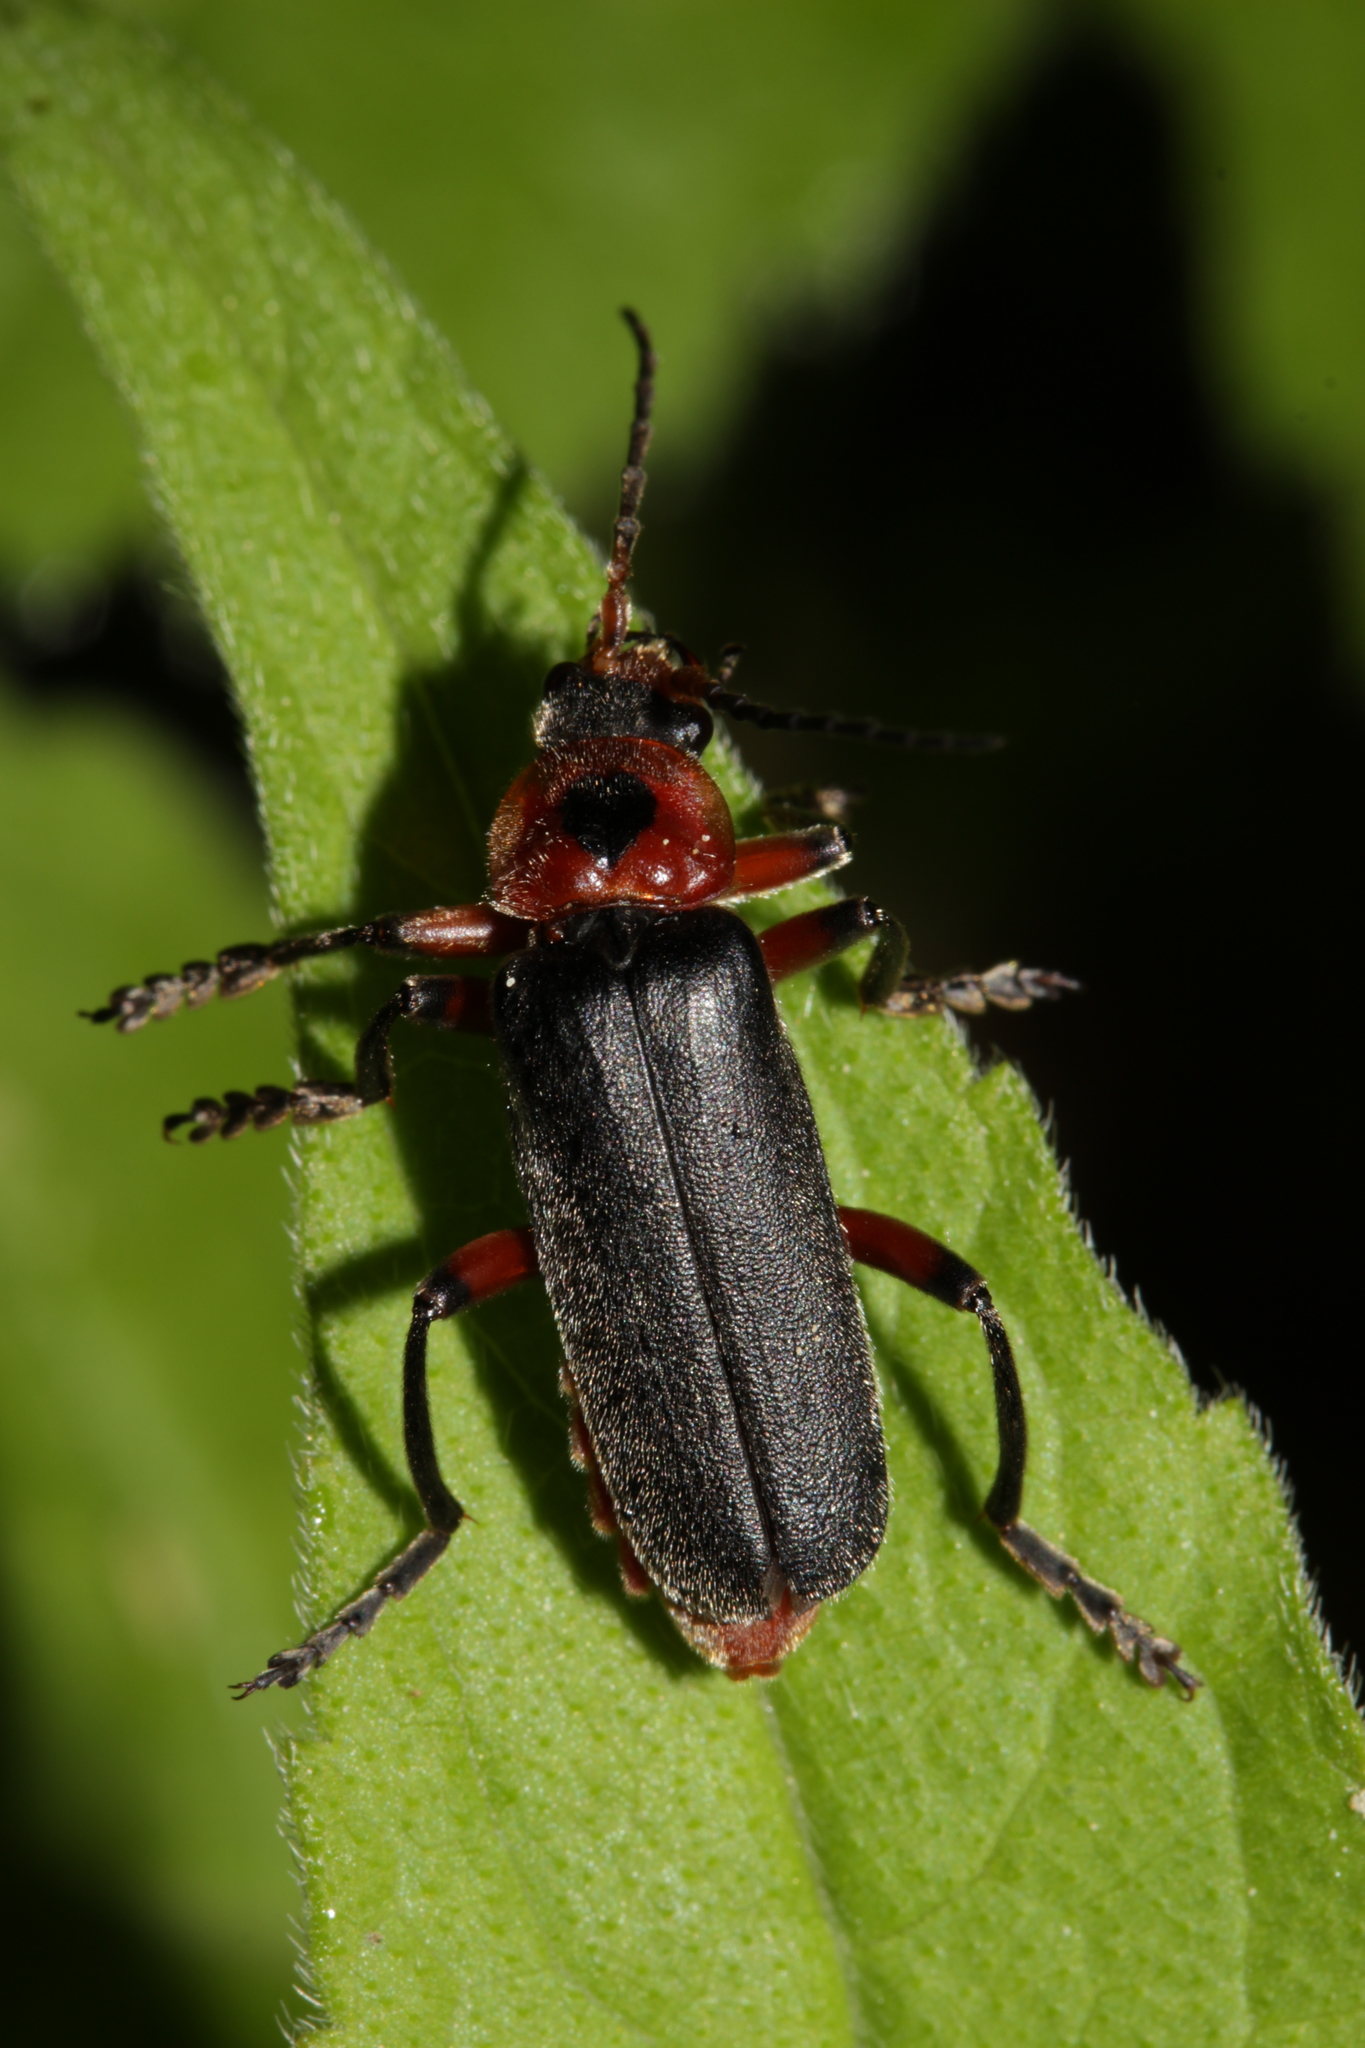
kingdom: Animalia
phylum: Arthropoda
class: Insecta
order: Coleoptera
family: Cantharidae
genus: Cantharis
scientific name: Cantharis rustica
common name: Soldier beetle
